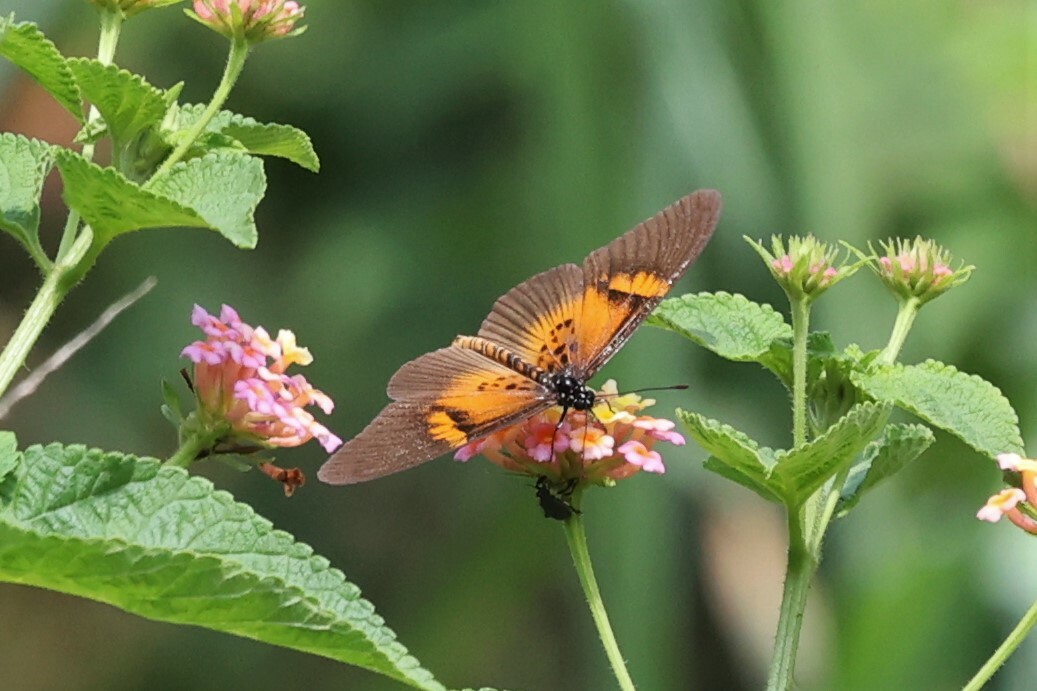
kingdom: Animalia
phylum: Arthropoda
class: Insecta
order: Lepidoptera
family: Nymphalidae
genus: Acraea
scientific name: Acraea
